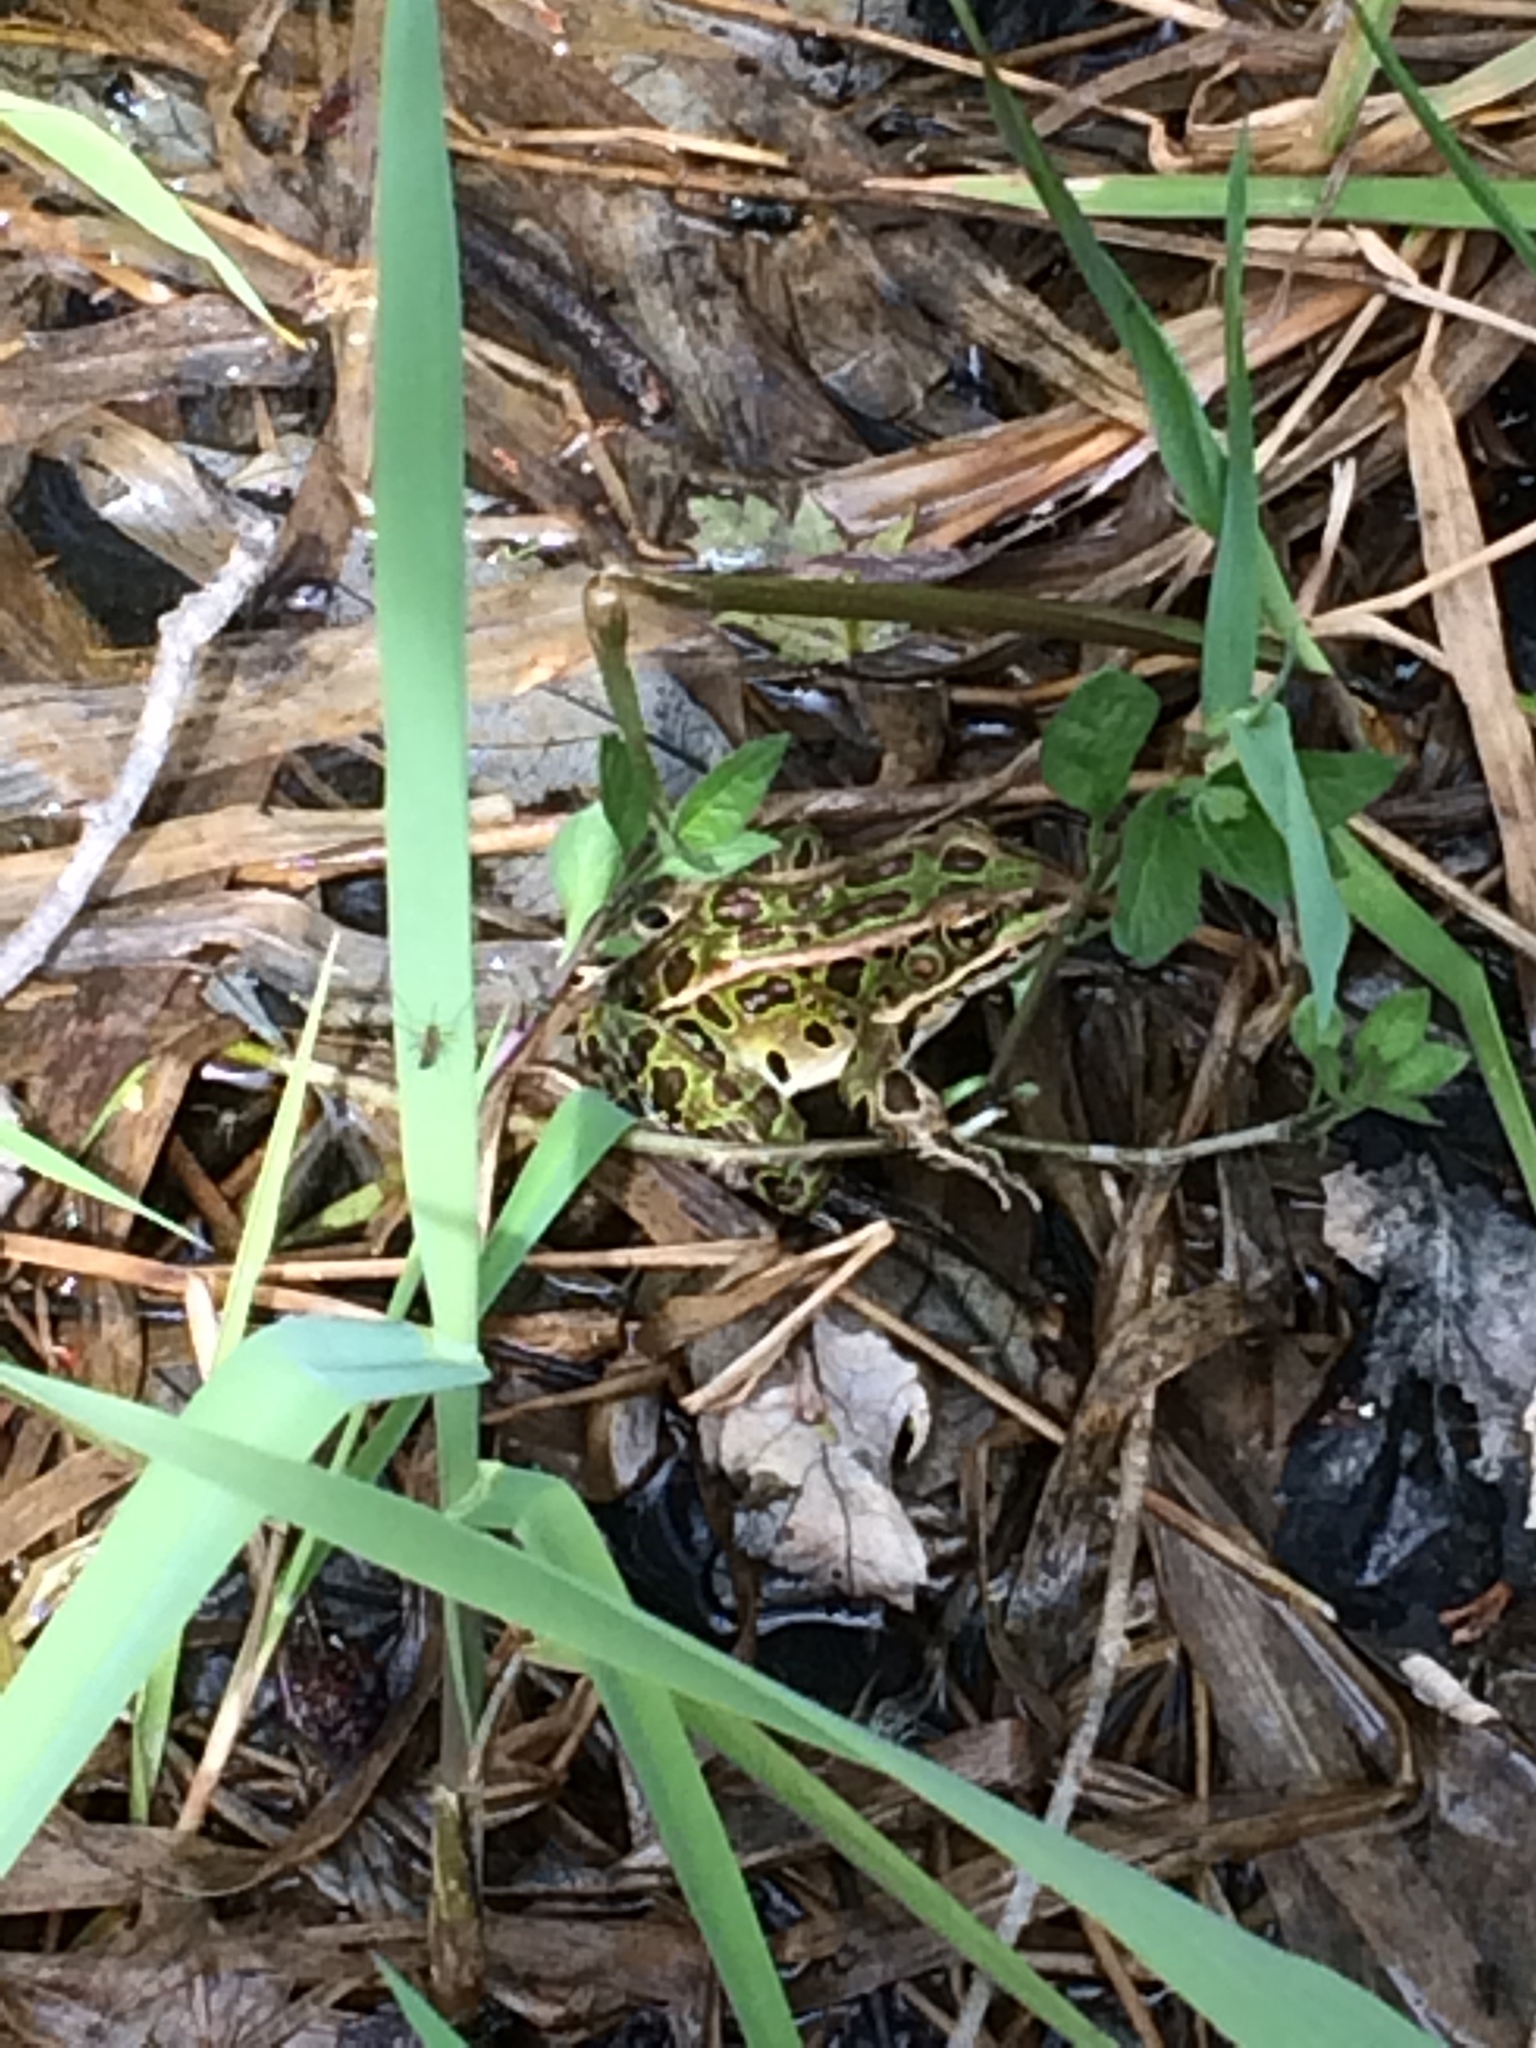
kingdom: Animalia
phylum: Chordata
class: Amphibia
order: Anura
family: Ranidae
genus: Lithobates
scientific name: Lithobates pipiens
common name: Northern leopard frog
